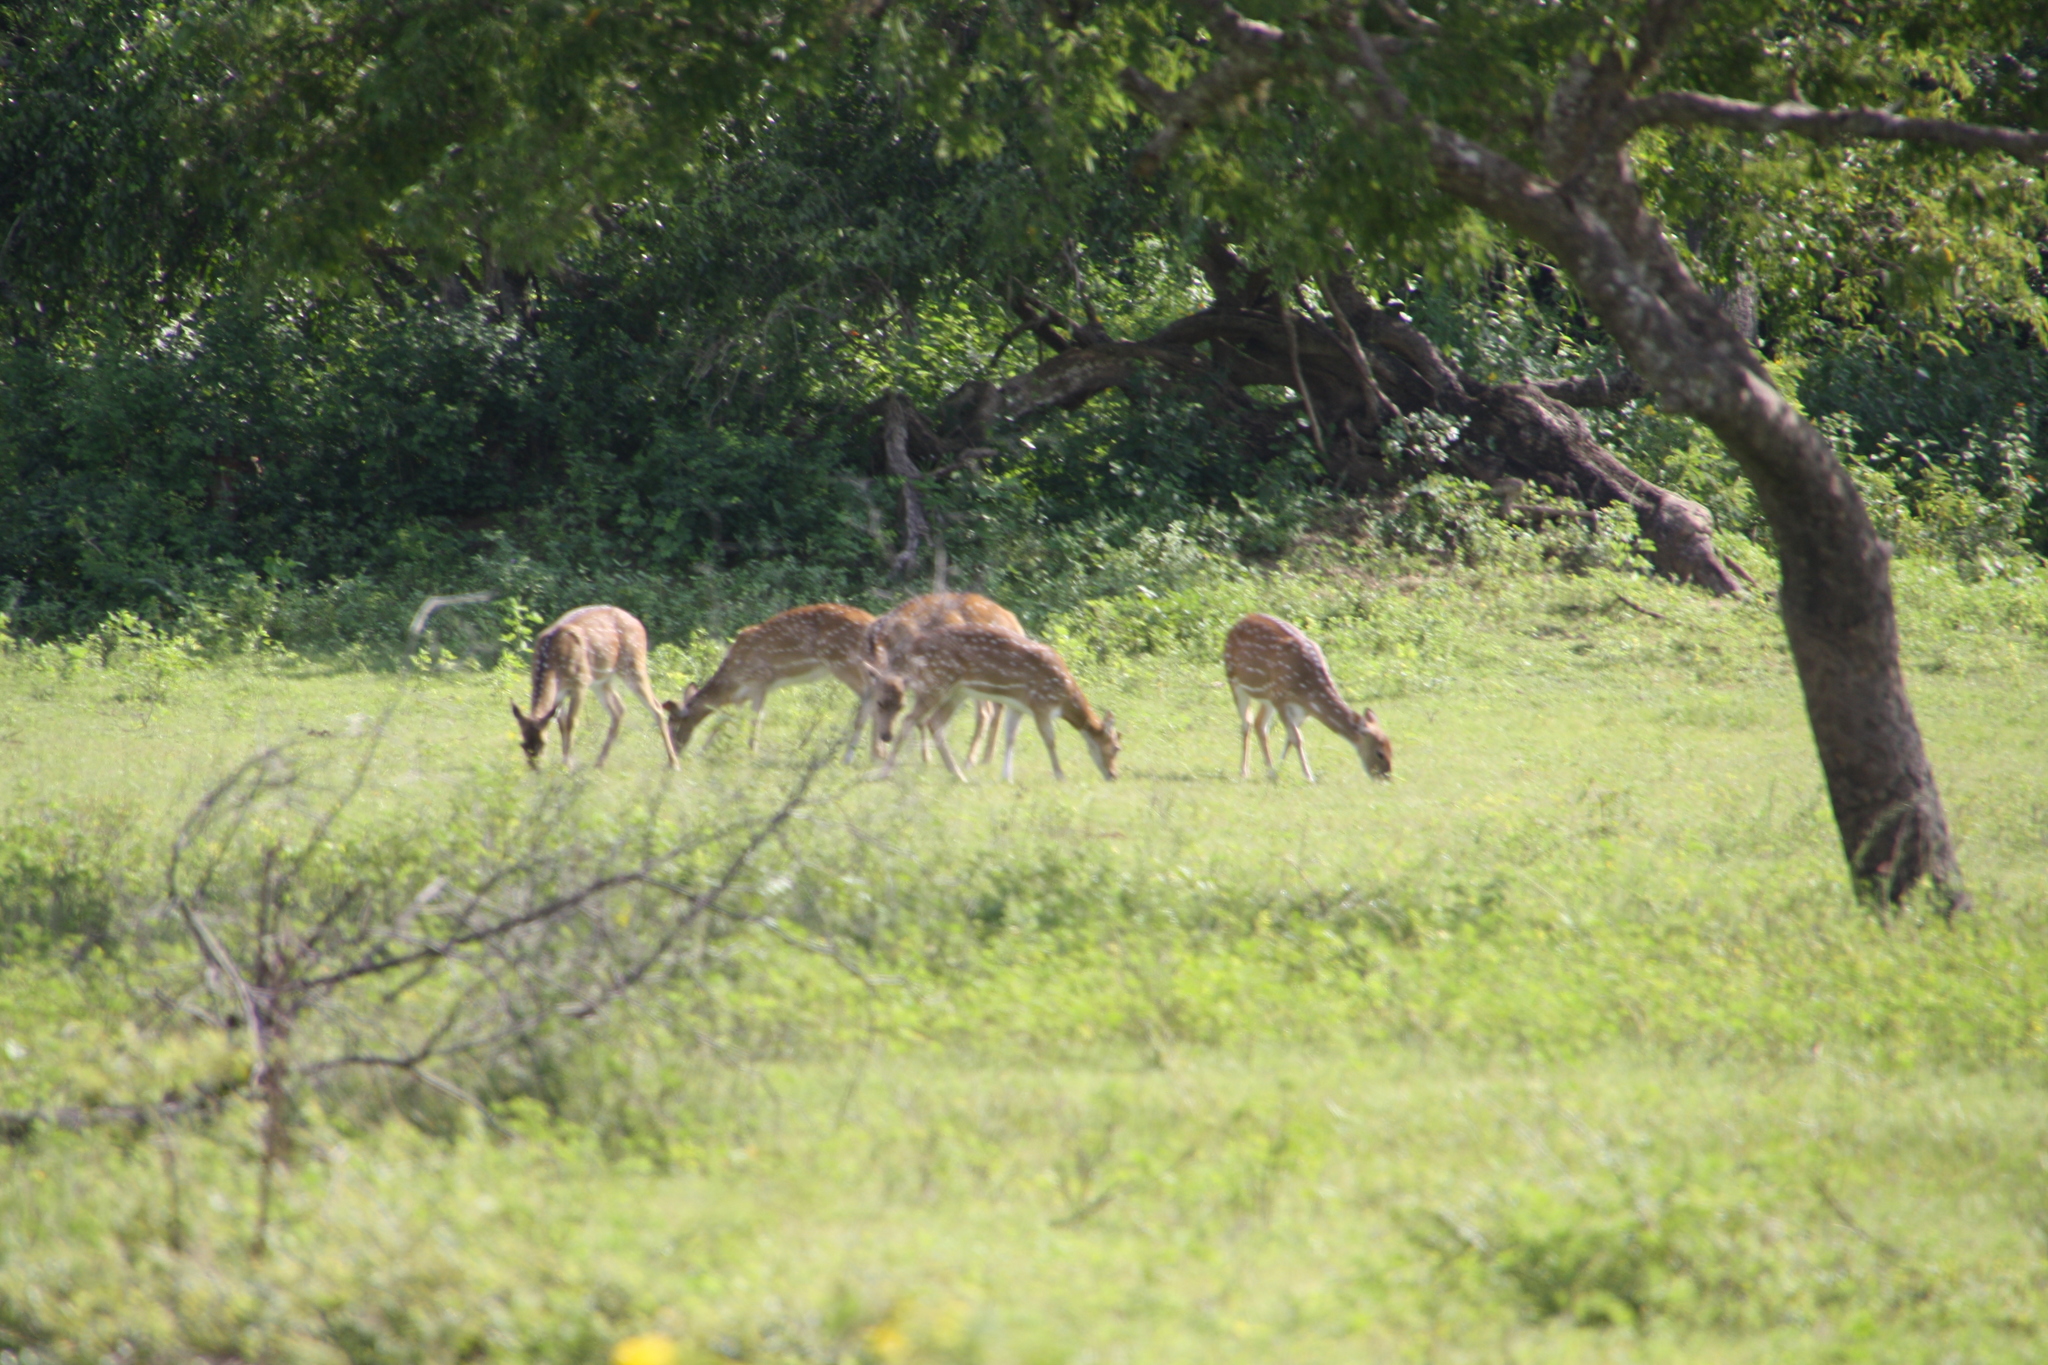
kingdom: Animalia
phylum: Chordata
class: Mammalia
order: Artiodactyla
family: Cervidae
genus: Axis
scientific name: Axis axis
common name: Chital
